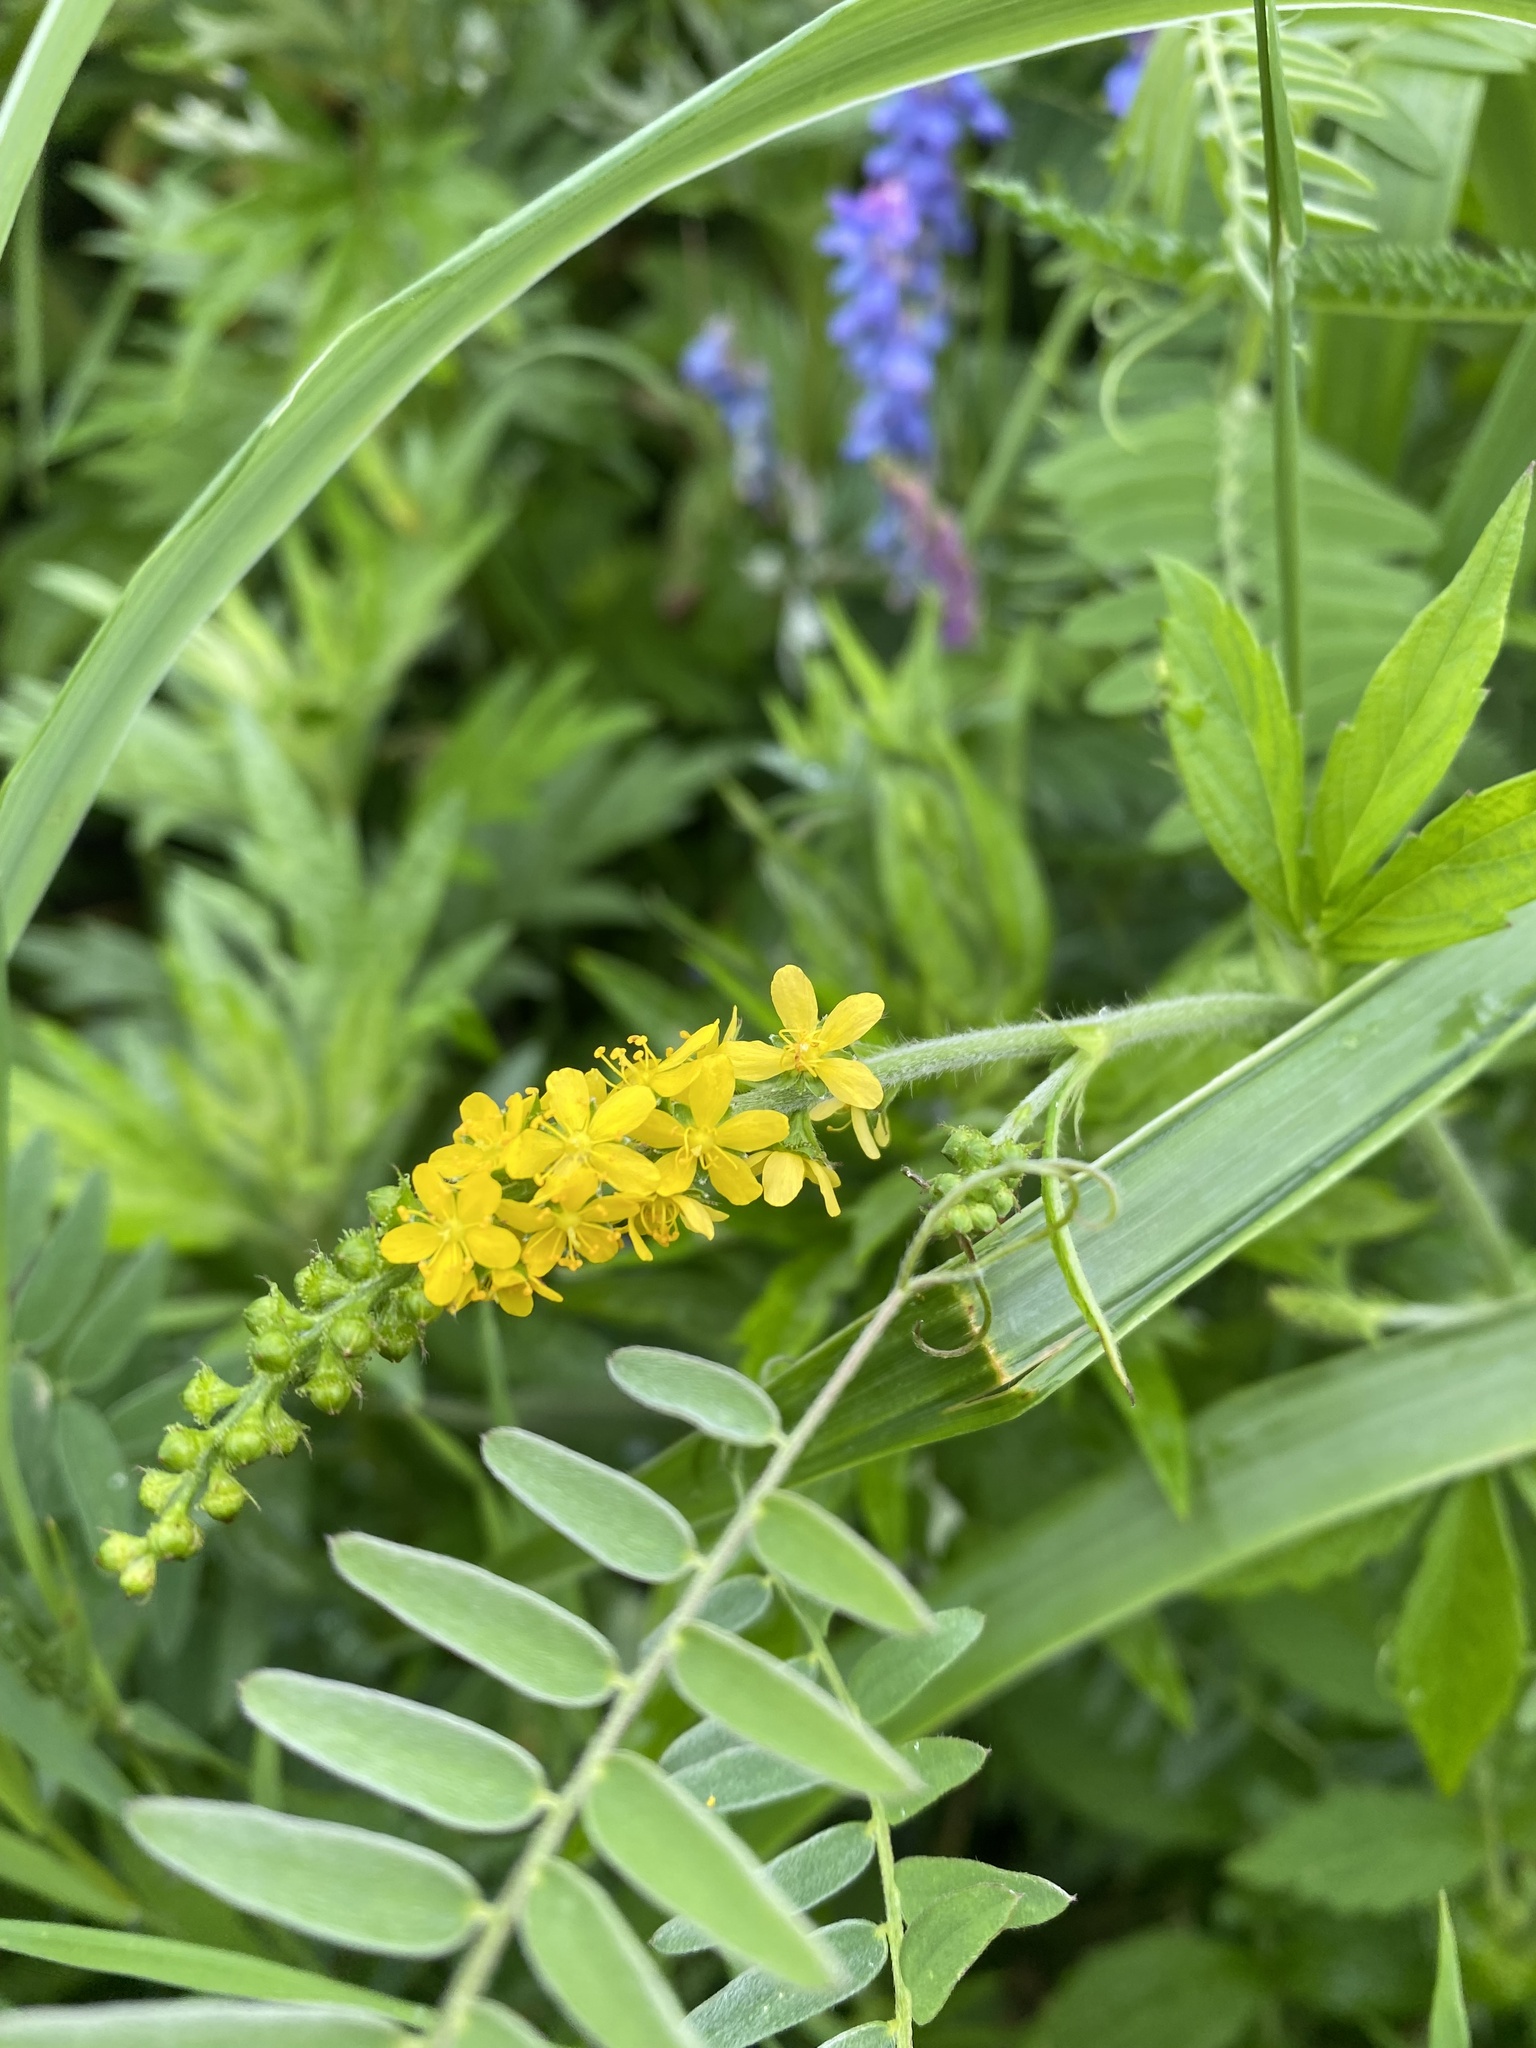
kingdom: Plantae
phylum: Tracheophyta
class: Magnoliopsida
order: Rosales
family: Rosaceae
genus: Agrimonia
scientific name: Agrimonia eupatoria
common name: Agrimony
